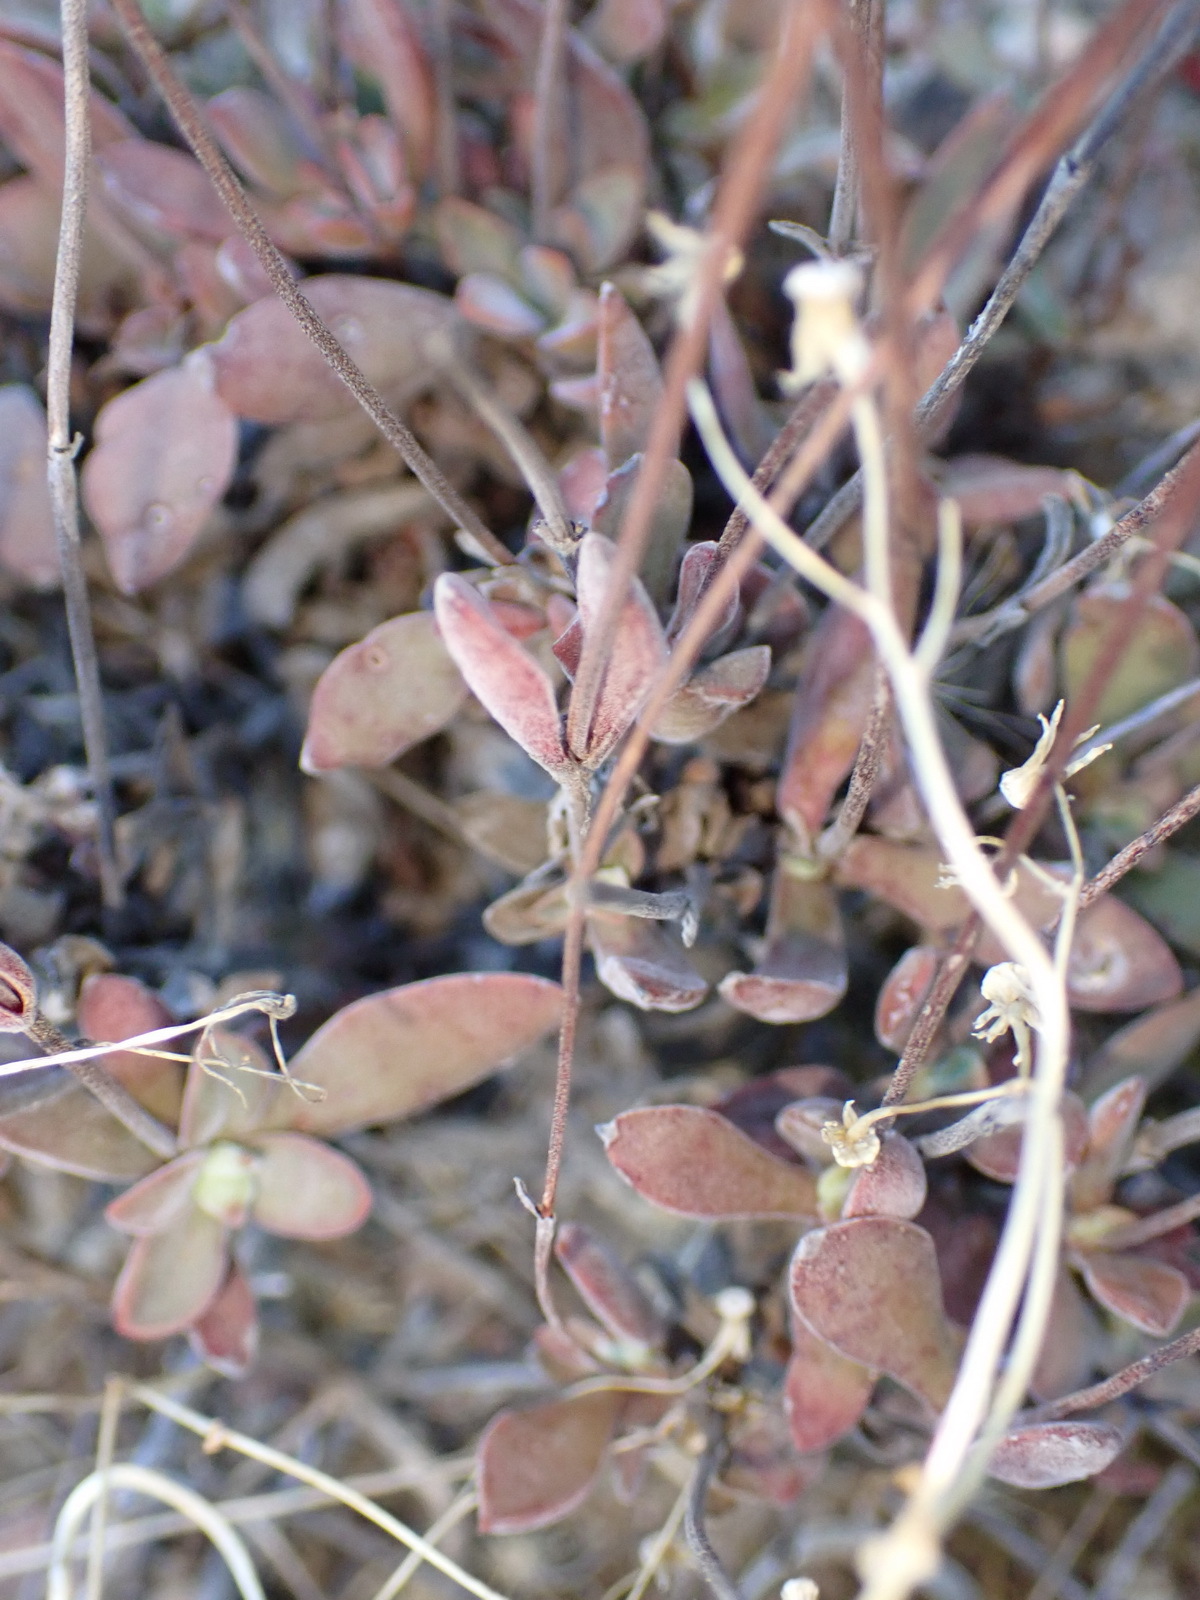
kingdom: Plantae
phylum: Tracheophyta
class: Magnoliopsida
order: Saxifragales
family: Crassulaceae
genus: Crassula
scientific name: Crassula pubescens
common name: Jersey pigmyweed
